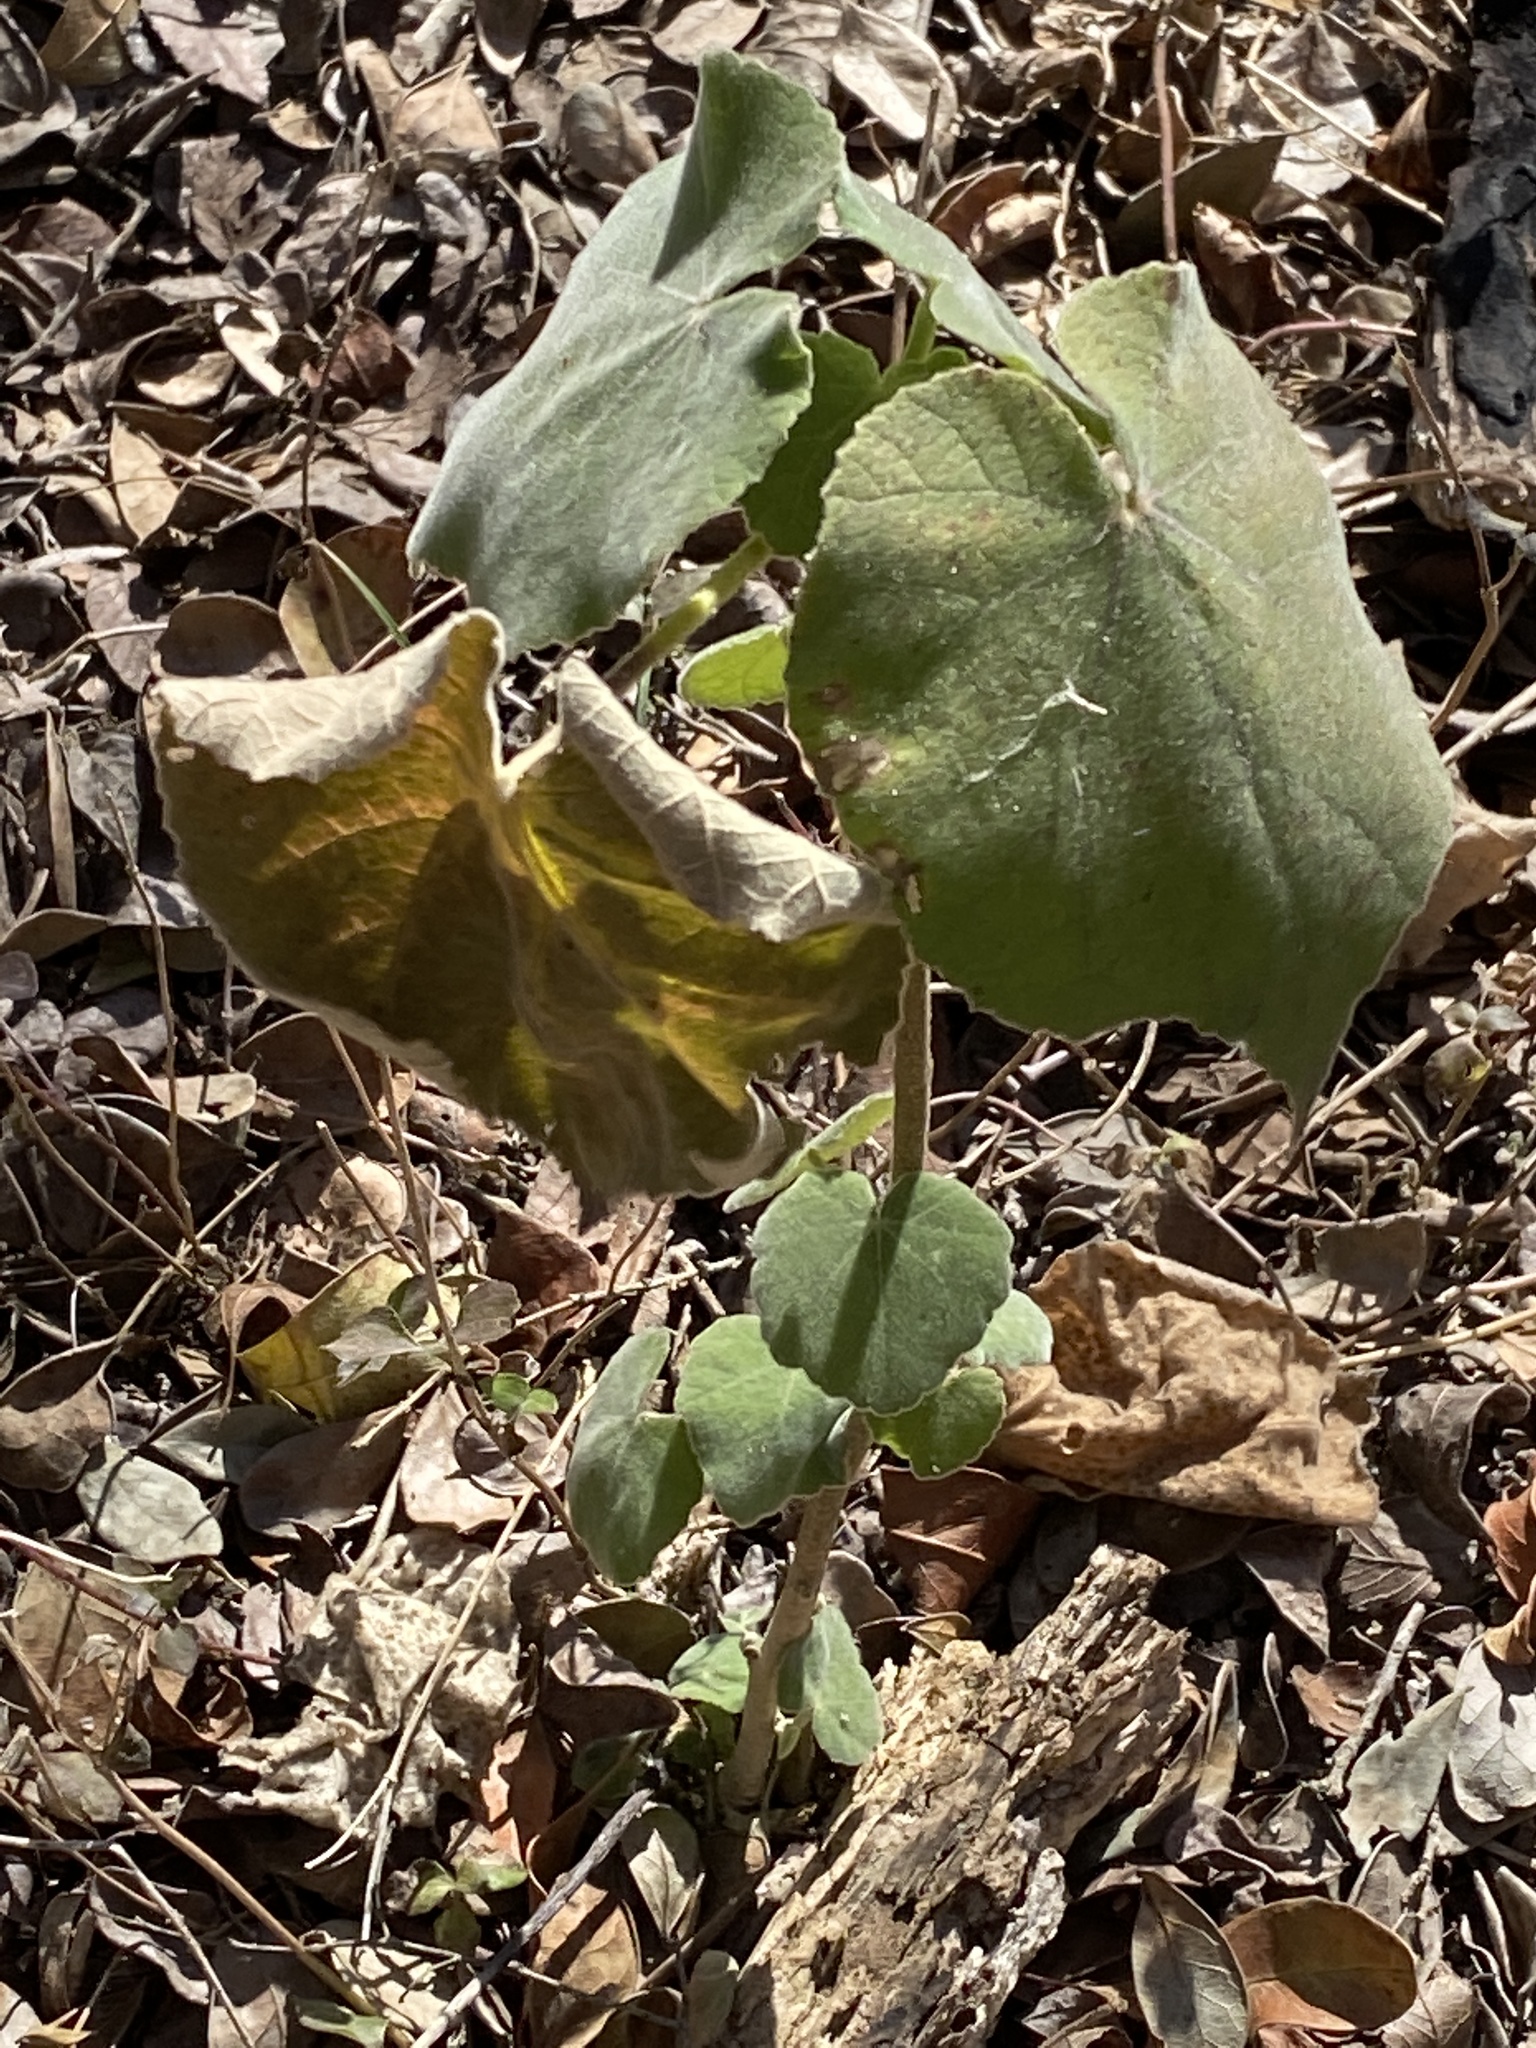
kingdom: Plantae
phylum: Tracheophyta
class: Magnoliopsida
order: Malvales
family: Malvaceae
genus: Allowissadula
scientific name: Allowissadula holosericea
